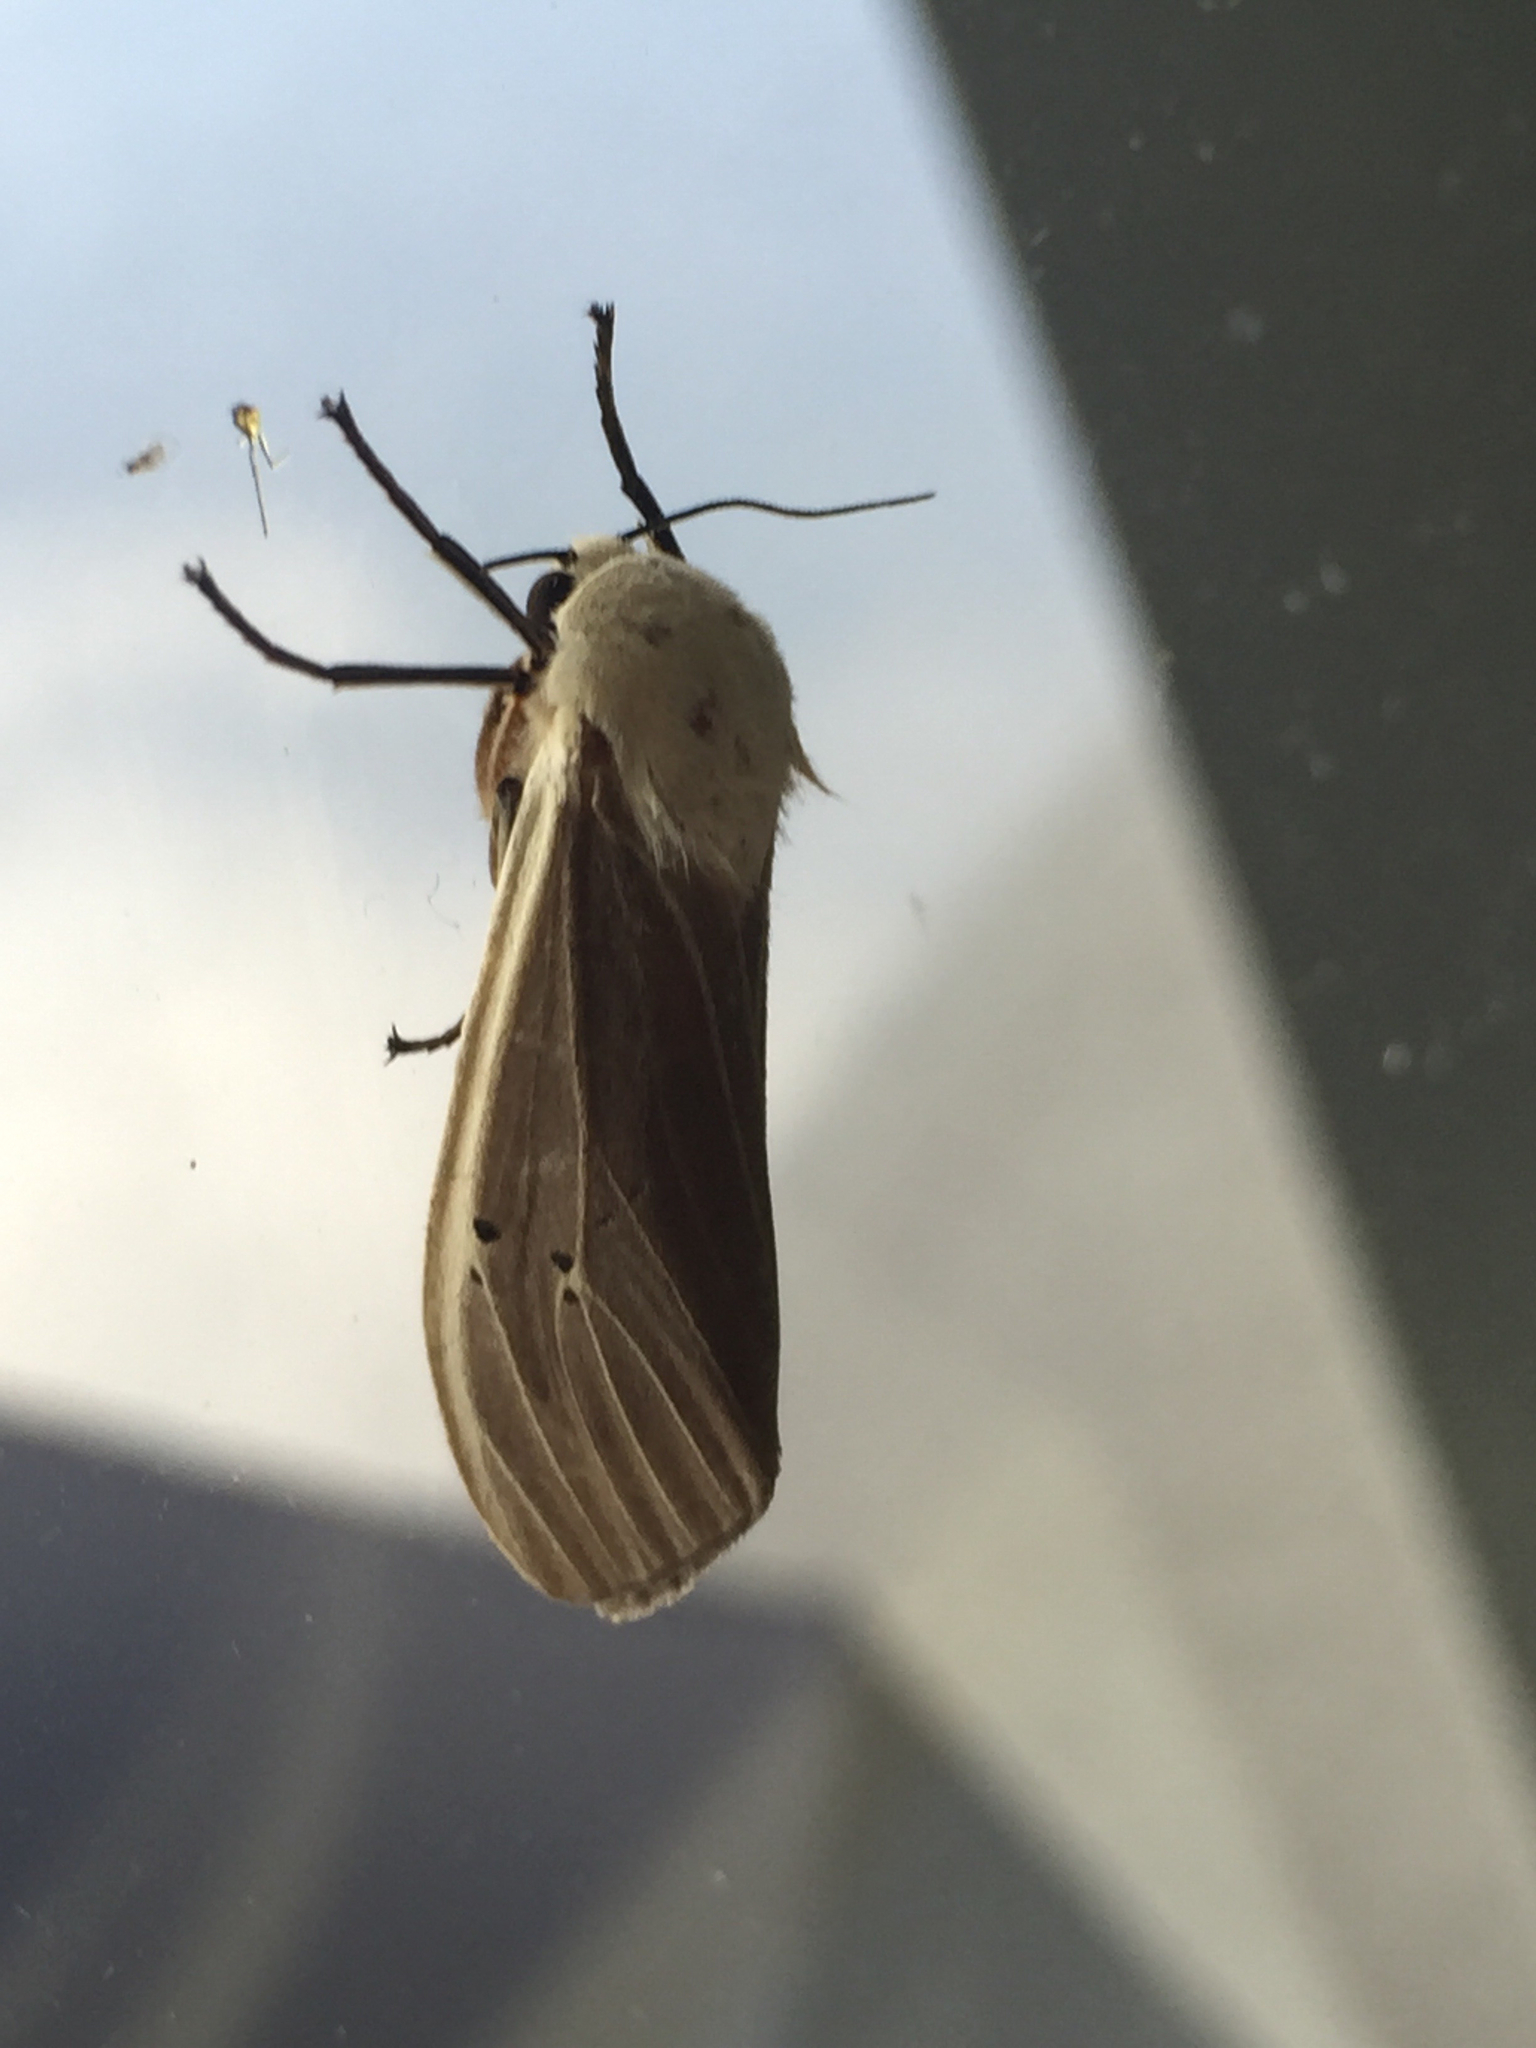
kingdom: Animalia
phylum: Arthropoda
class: Insecta
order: Lepidoptera
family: Erebidae
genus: Creatonotos
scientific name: Creatonotos transiens
